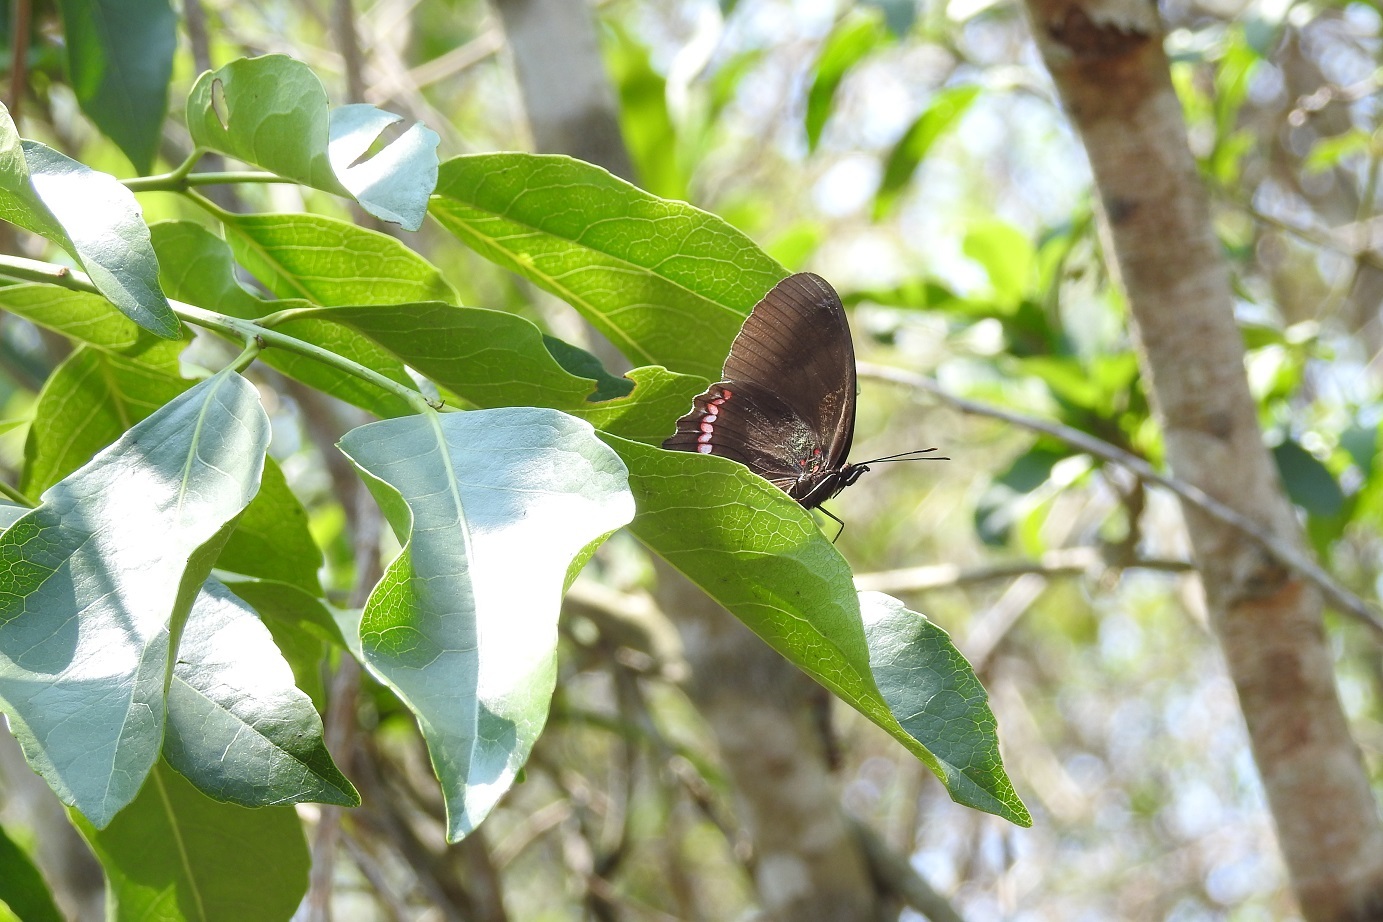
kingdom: Animalia
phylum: Arthropoda
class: Insecta
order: Lepidoptera
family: Nymphalidae
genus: Biblis
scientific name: Biblis aganisa
